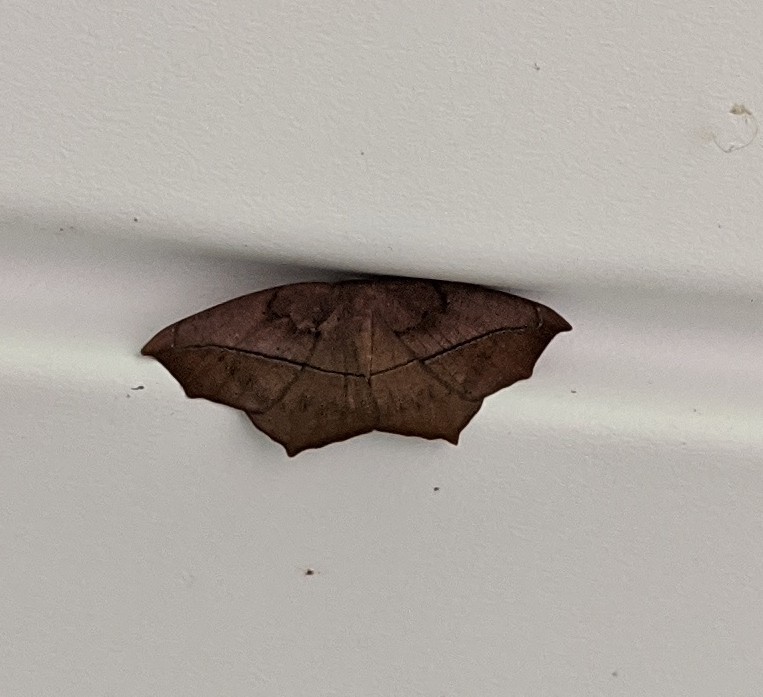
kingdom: Animalia
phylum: Arthropoda
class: Insecta
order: Lepidoptera
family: Geometridae
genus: Prochoerodes
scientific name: Prochoerodes lineola
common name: Large maple spanworm
